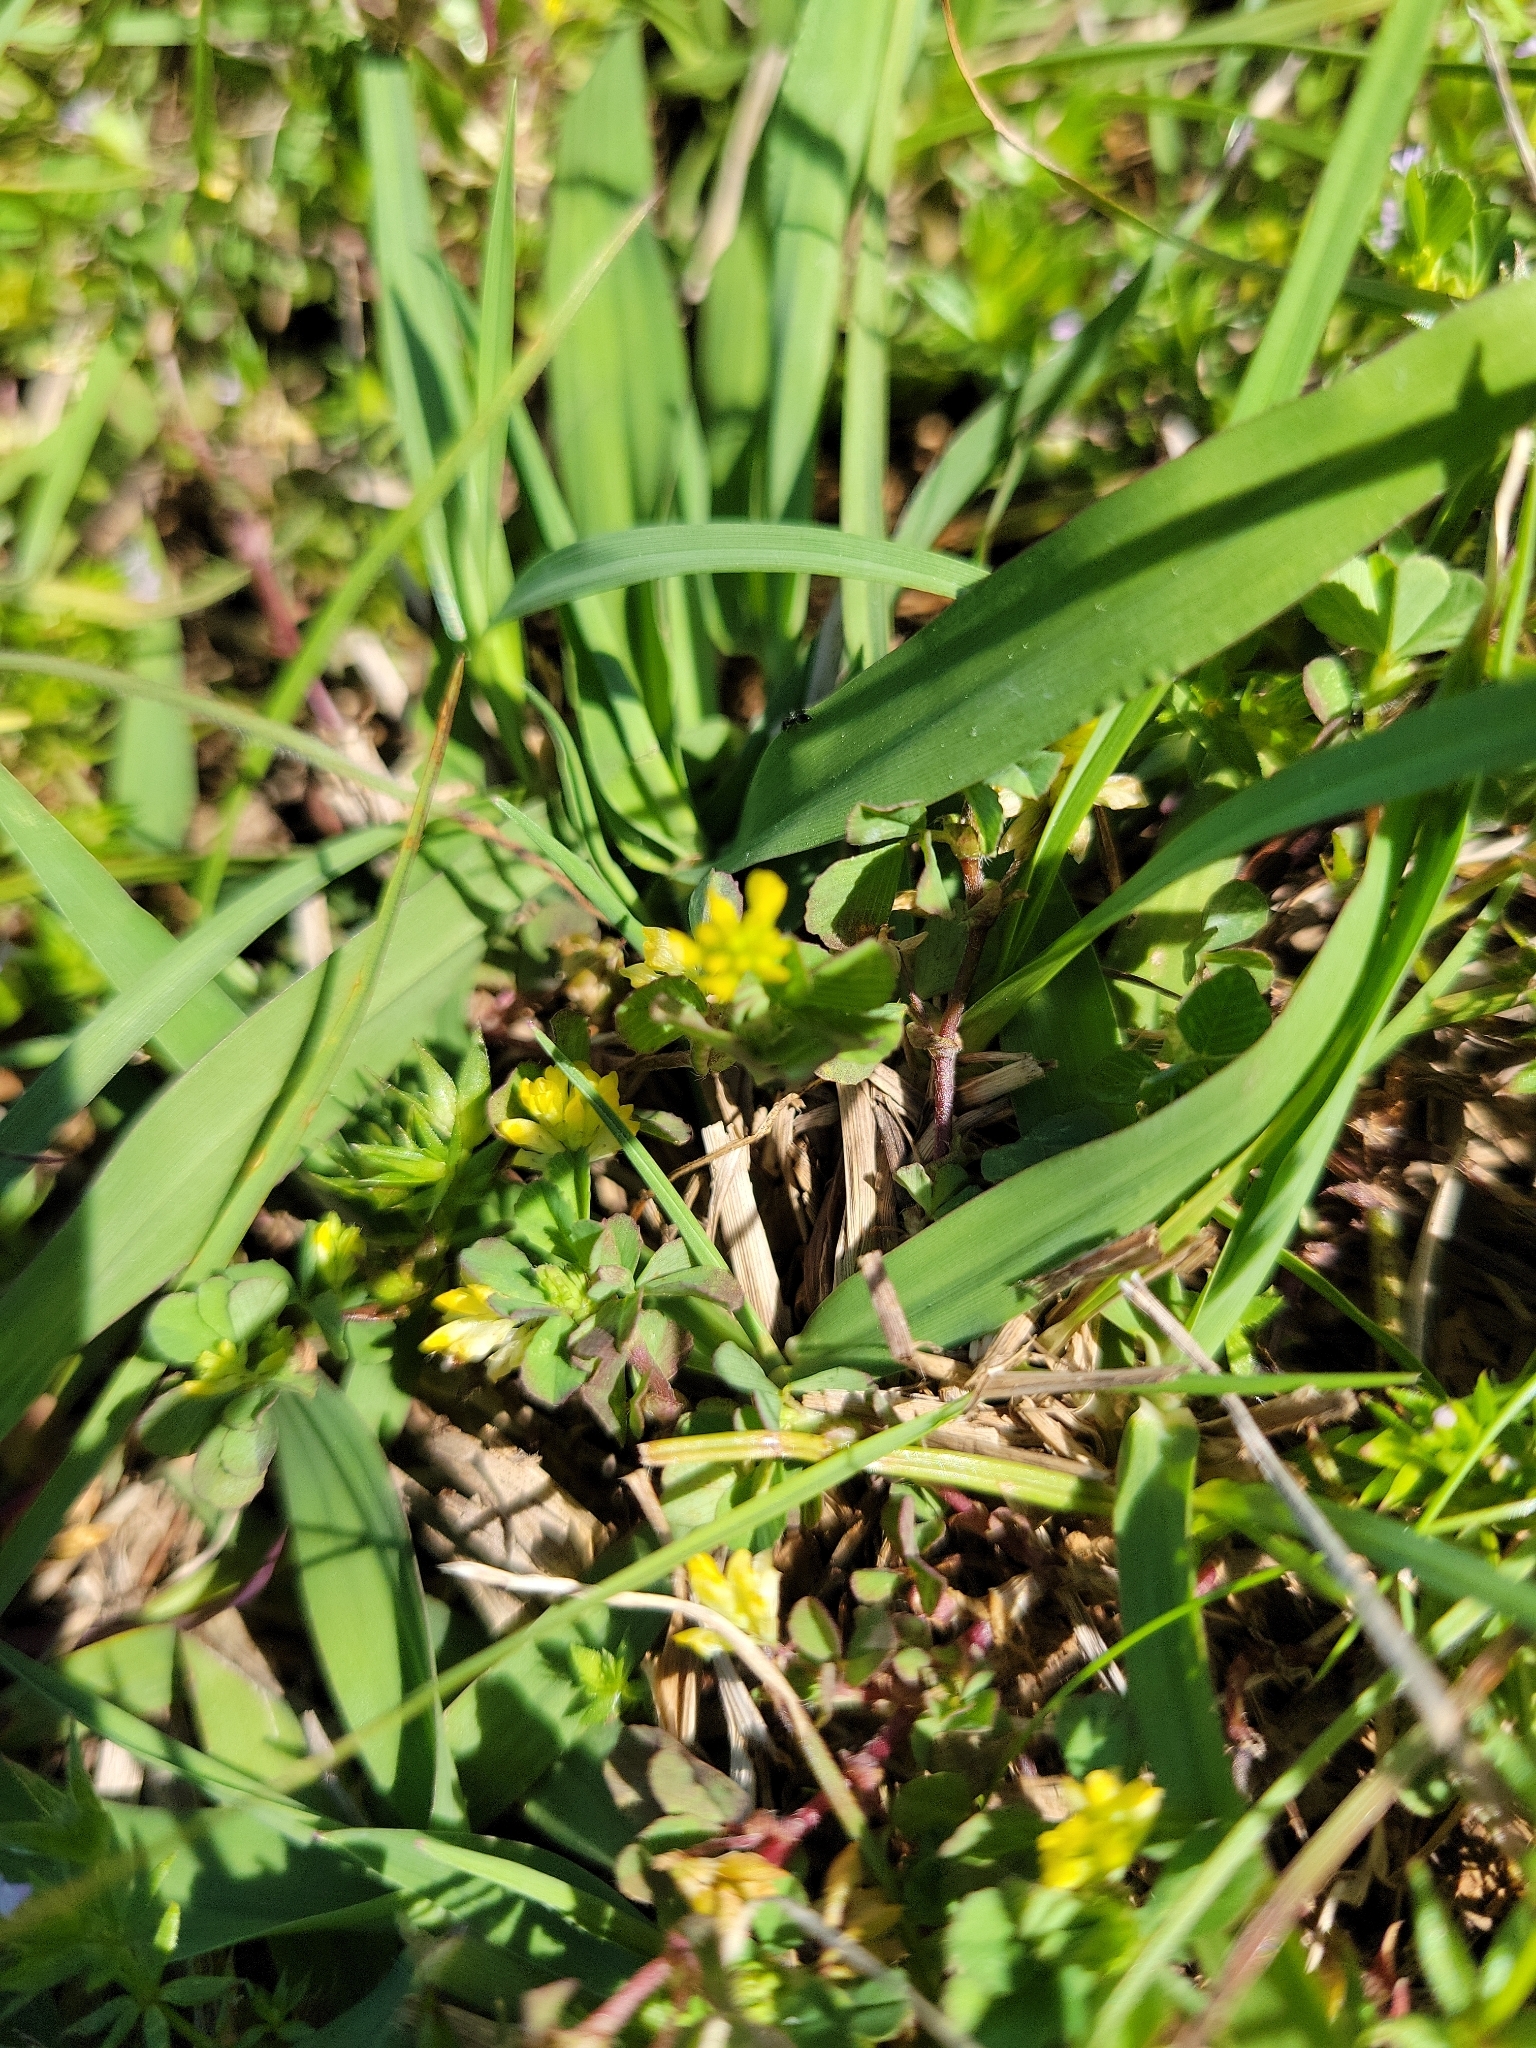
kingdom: Plantae
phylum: Tracheophyta
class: Magnoliopsida
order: Fabales
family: Fabaceae
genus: Trifolium
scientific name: Trifolium dubium
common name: Suckling clover
